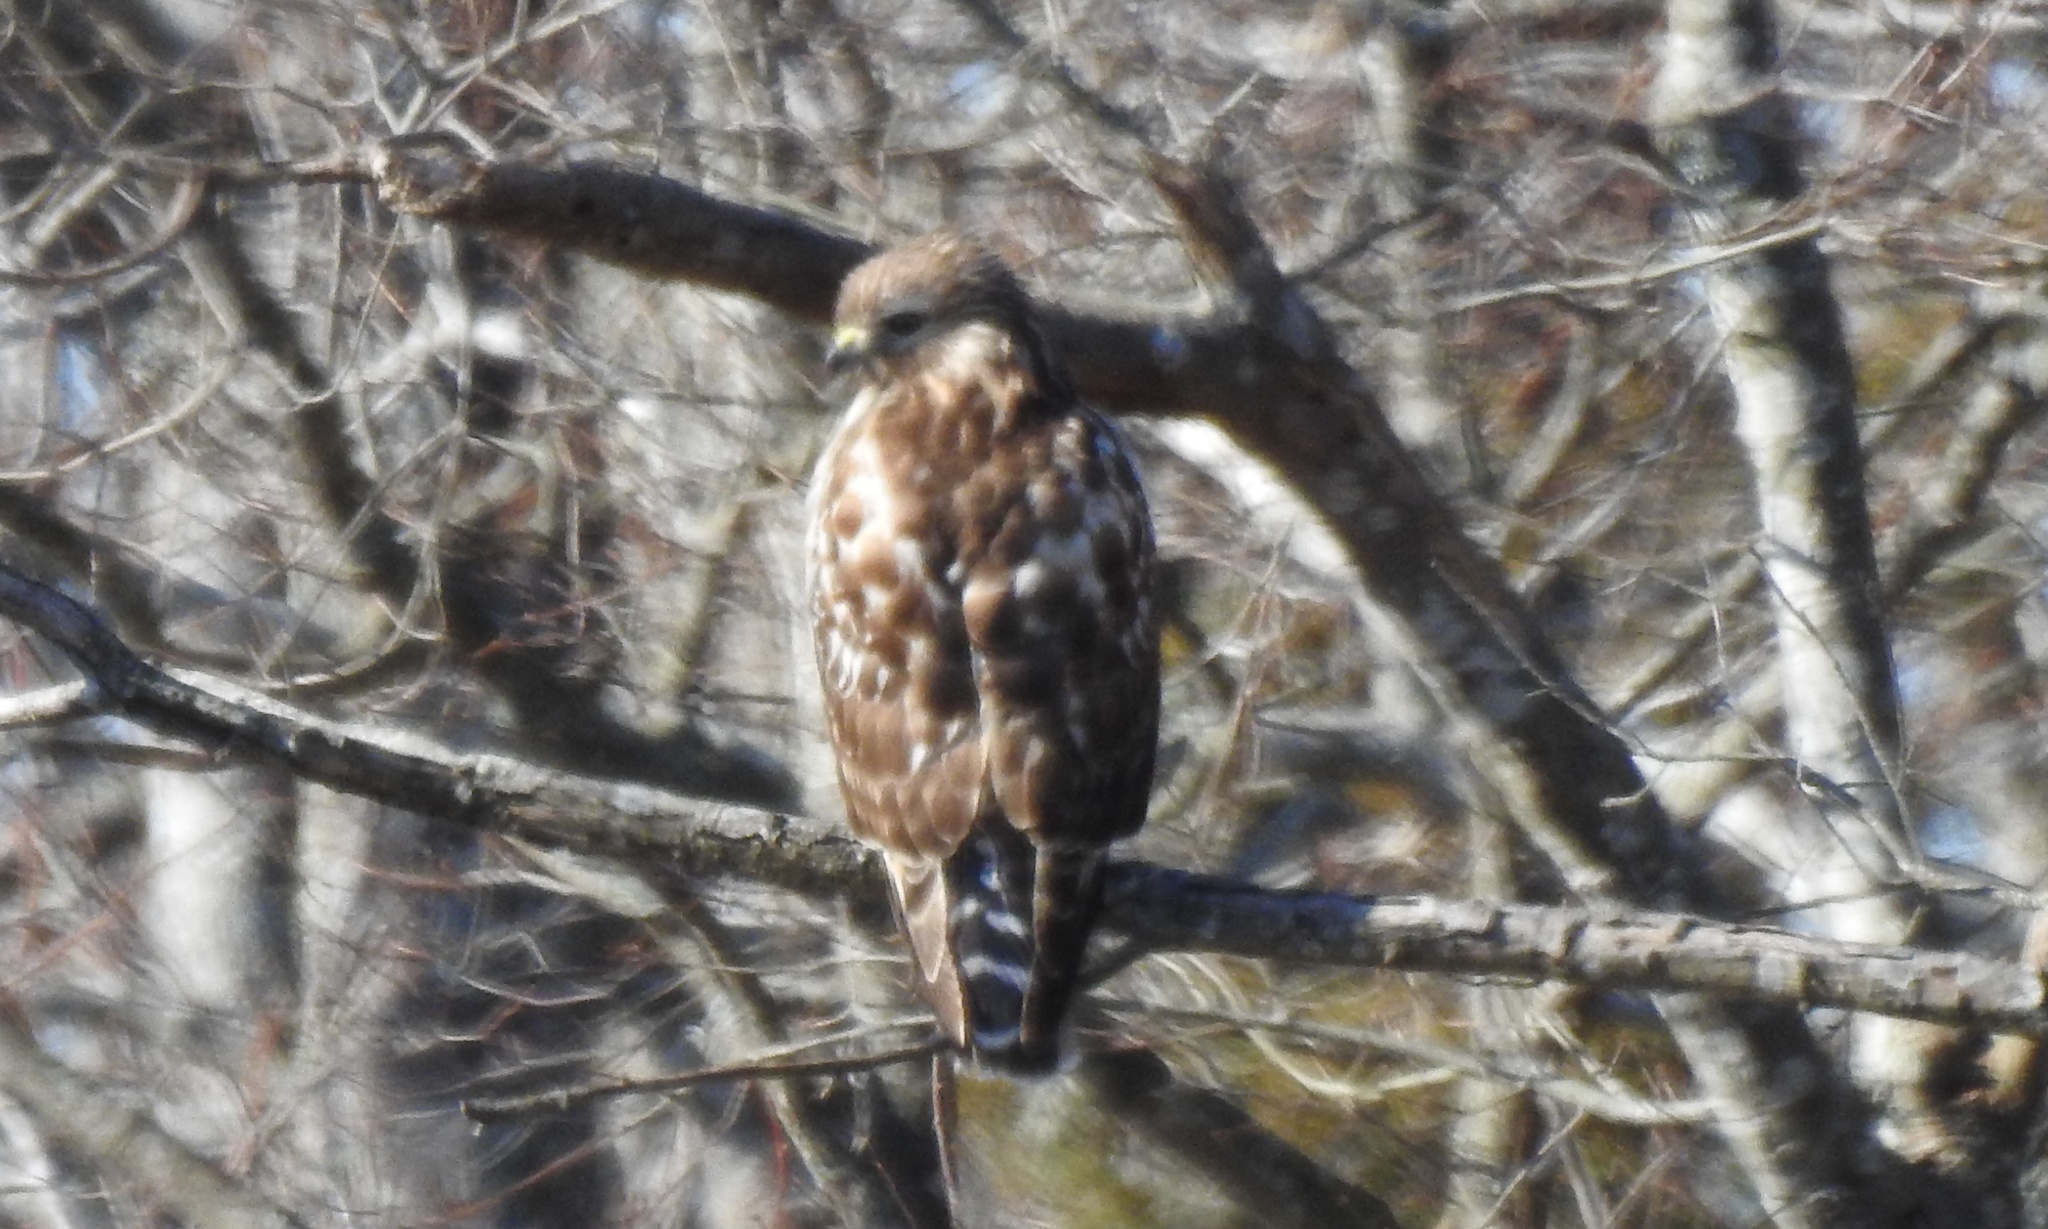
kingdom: Animalia
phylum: Chordata
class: Aves
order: Accipitriformes
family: Accipitridae
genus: Buteo
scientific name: Buteo lineatus
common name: Red-shouldered hawk
